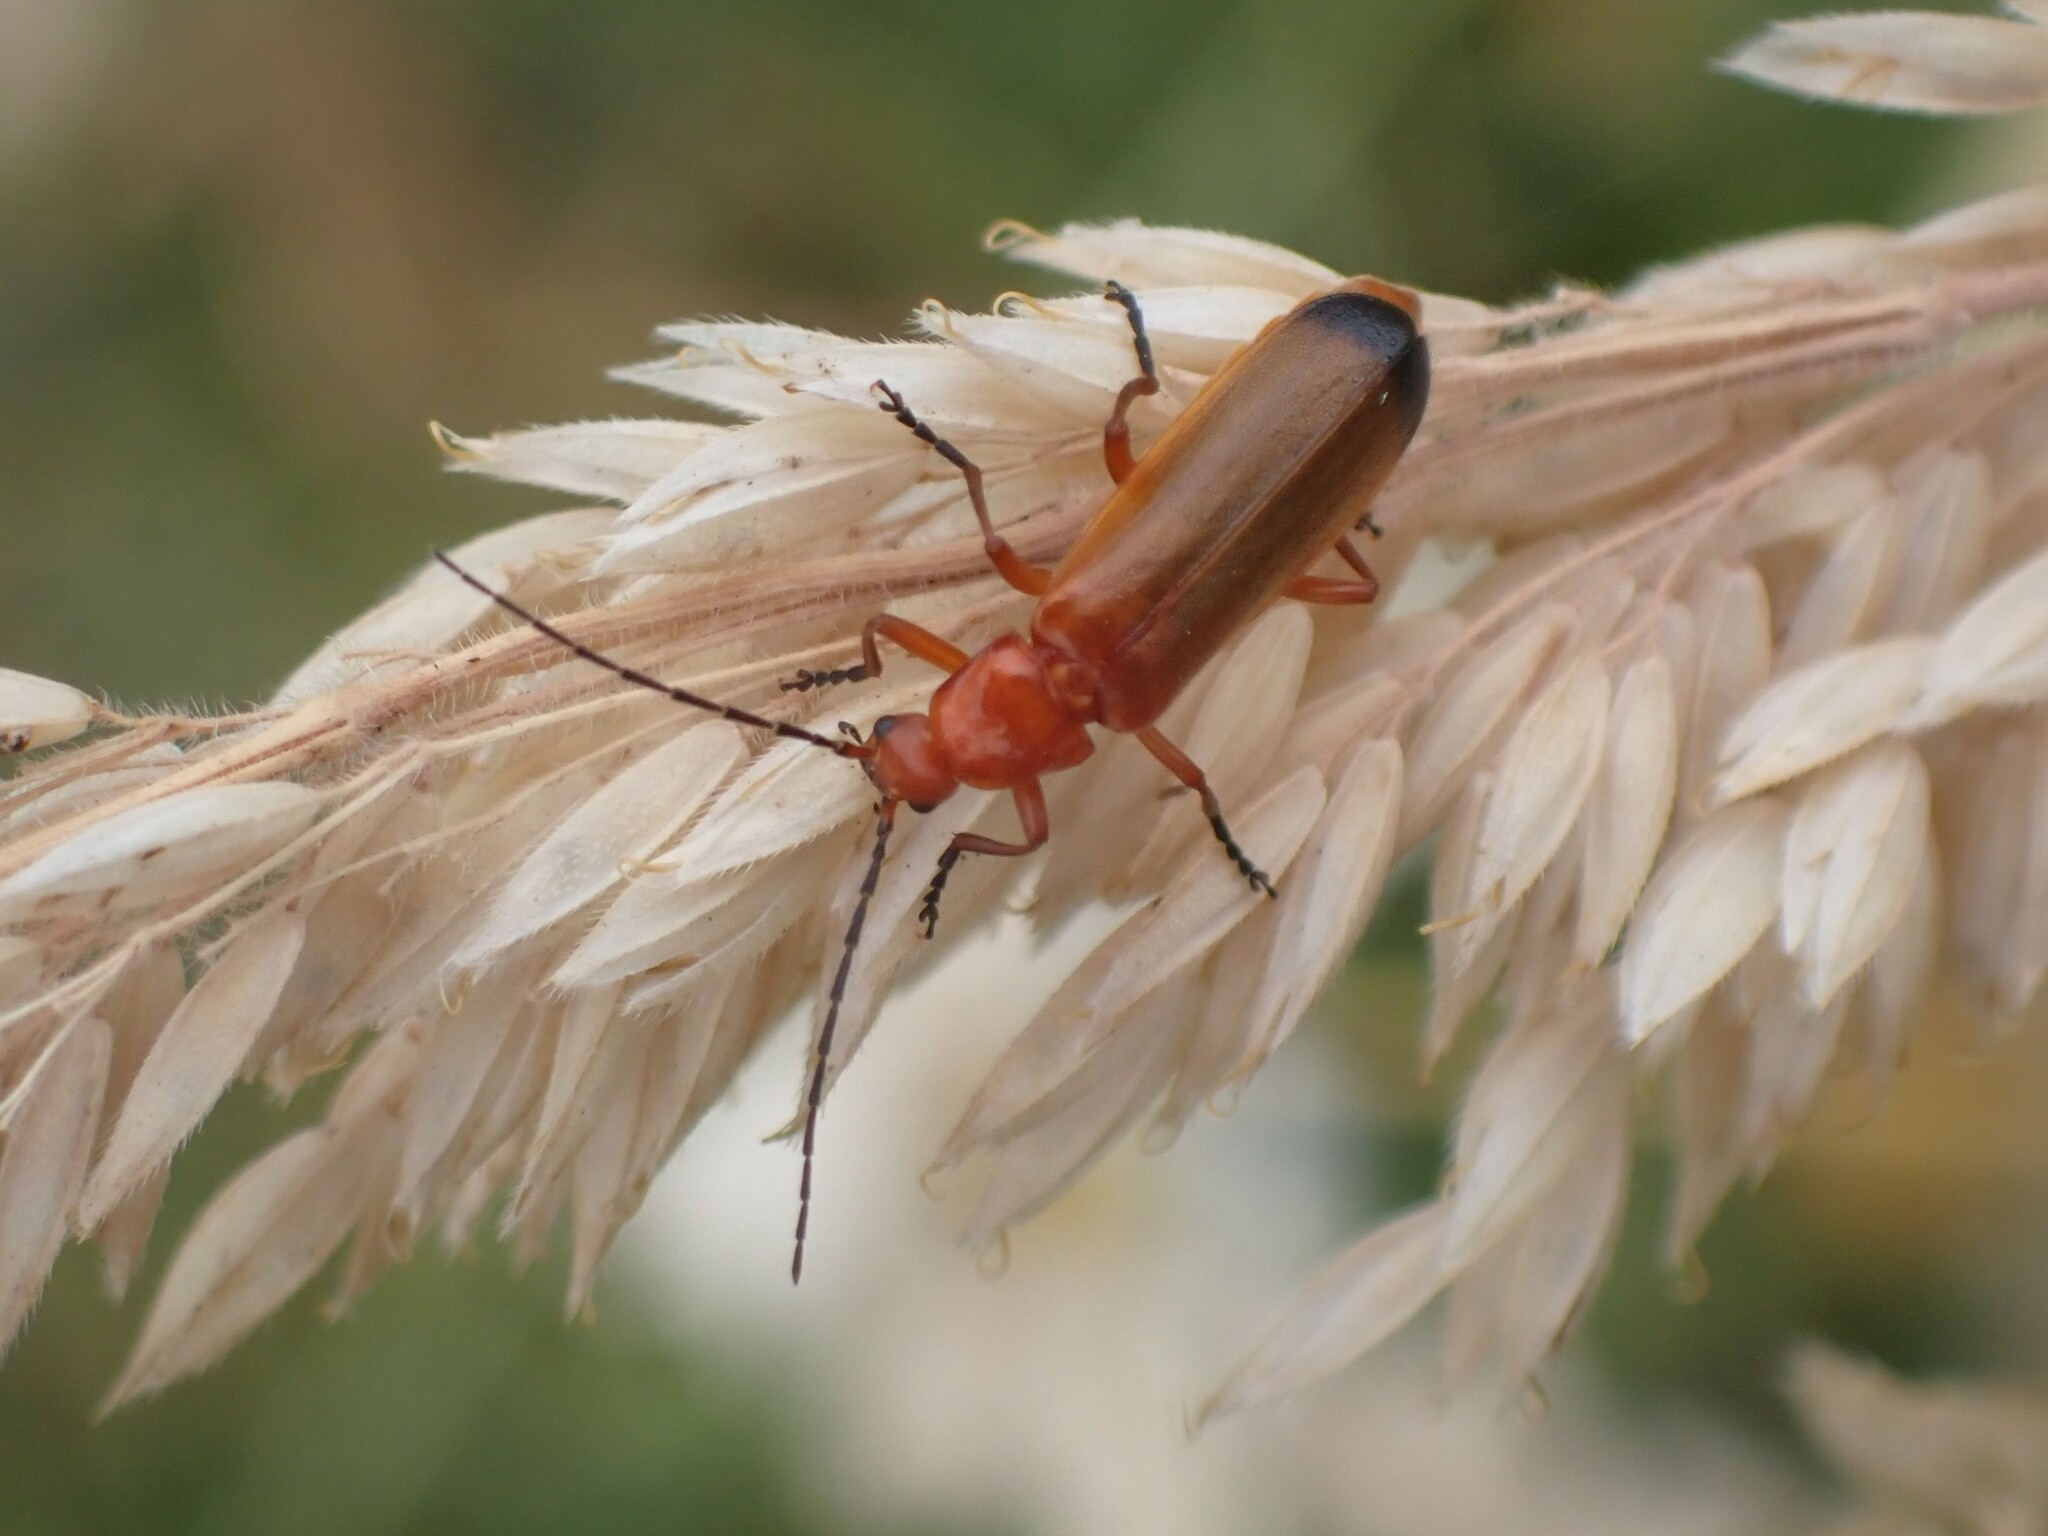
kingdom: Animalia
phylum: Arthropoda
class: Insecta
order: Coleoptera
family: Cantharidae
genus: Rhagonycha
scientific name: Rhagonycha fulva
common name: Common red soldier beetle
